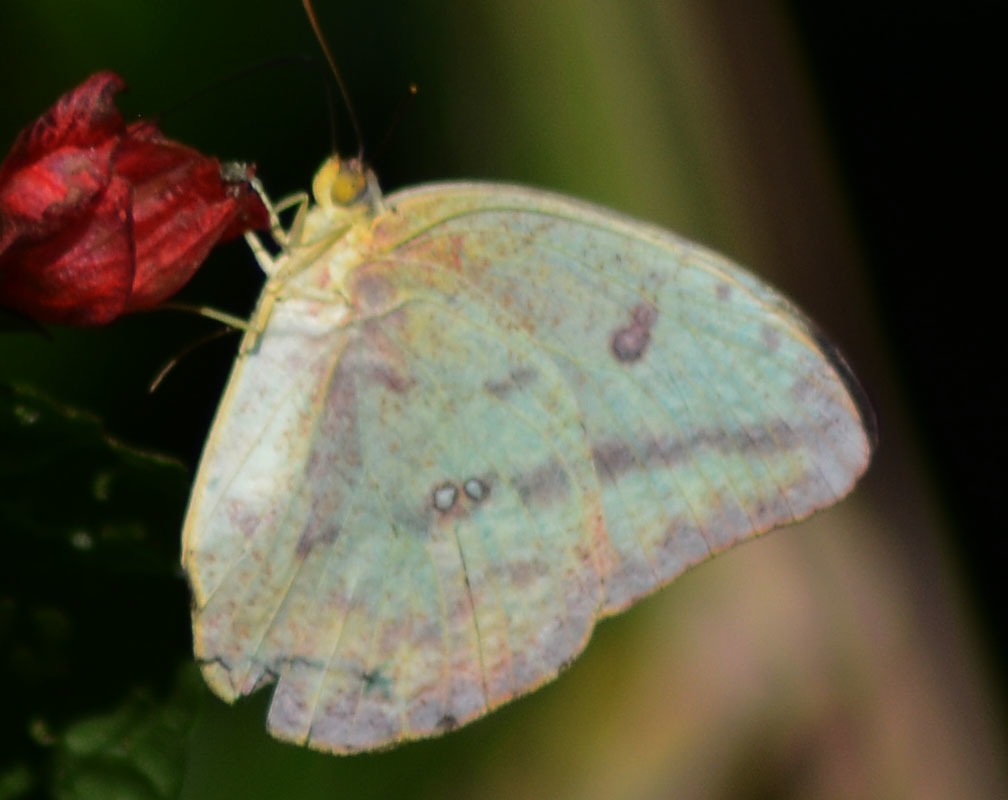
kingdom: Animalia
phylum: Arthropoda
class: Insecta
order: Lepidoptera
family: Pieridae
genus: Phoebis
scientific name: Phoebis agarithe
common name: Large orange sulphur
